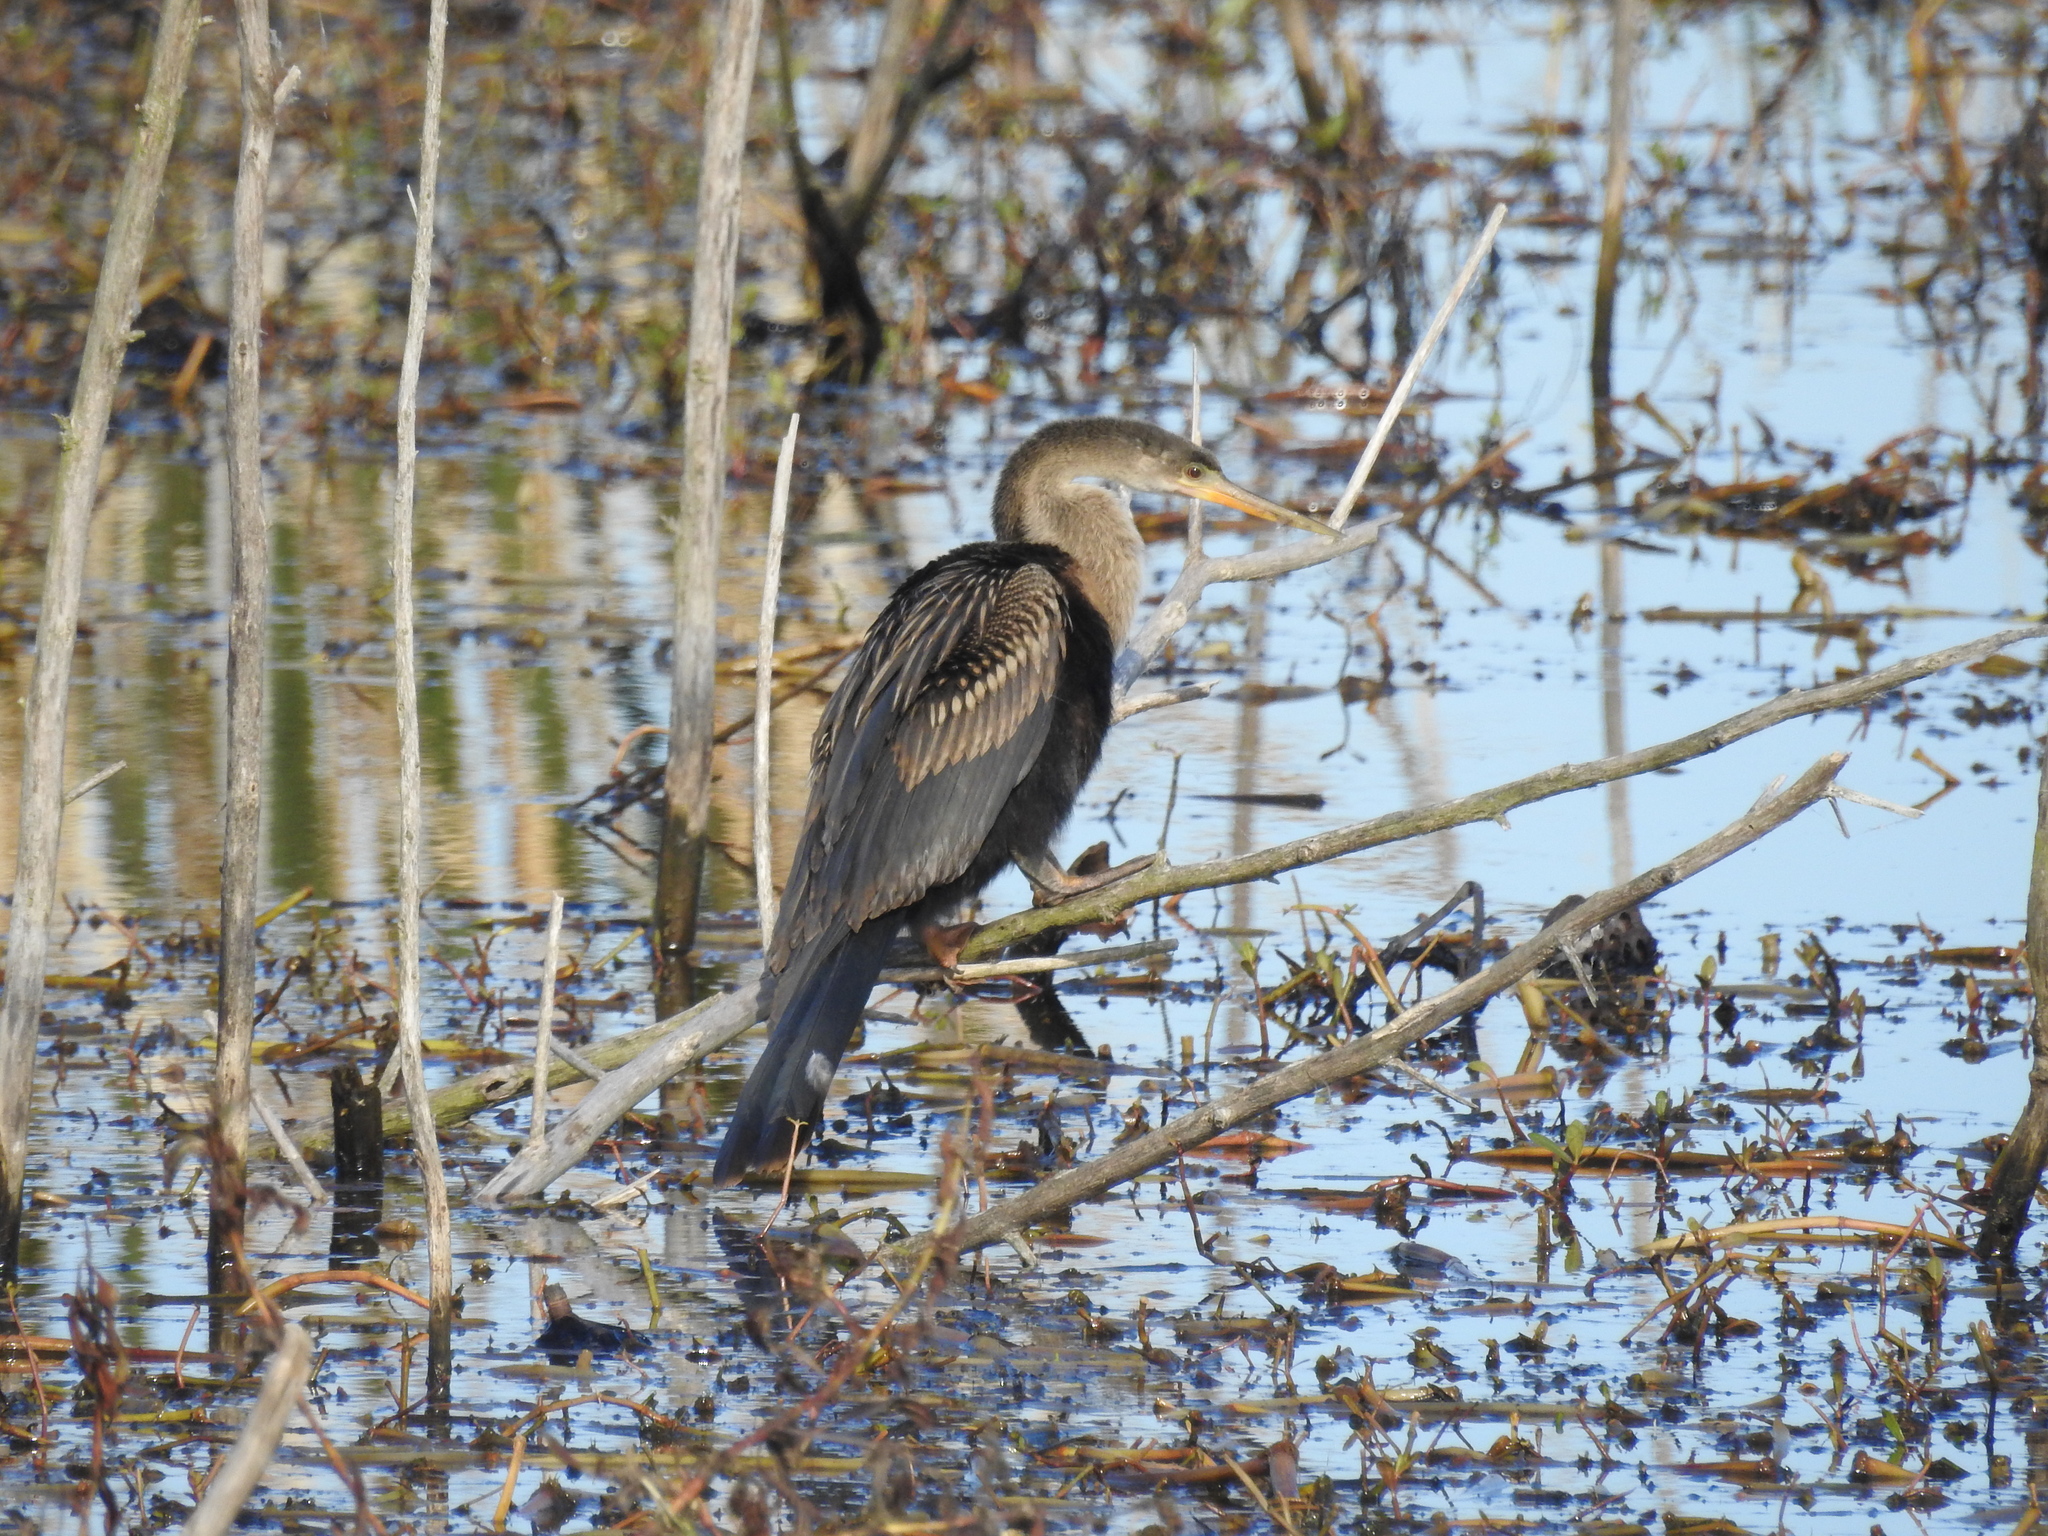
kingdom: Animalia
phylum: Chordata
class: Aves
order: Suliformes
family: Anhingidae
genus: Anhinga
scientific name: Anhinga anhinga
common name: Anhinga
